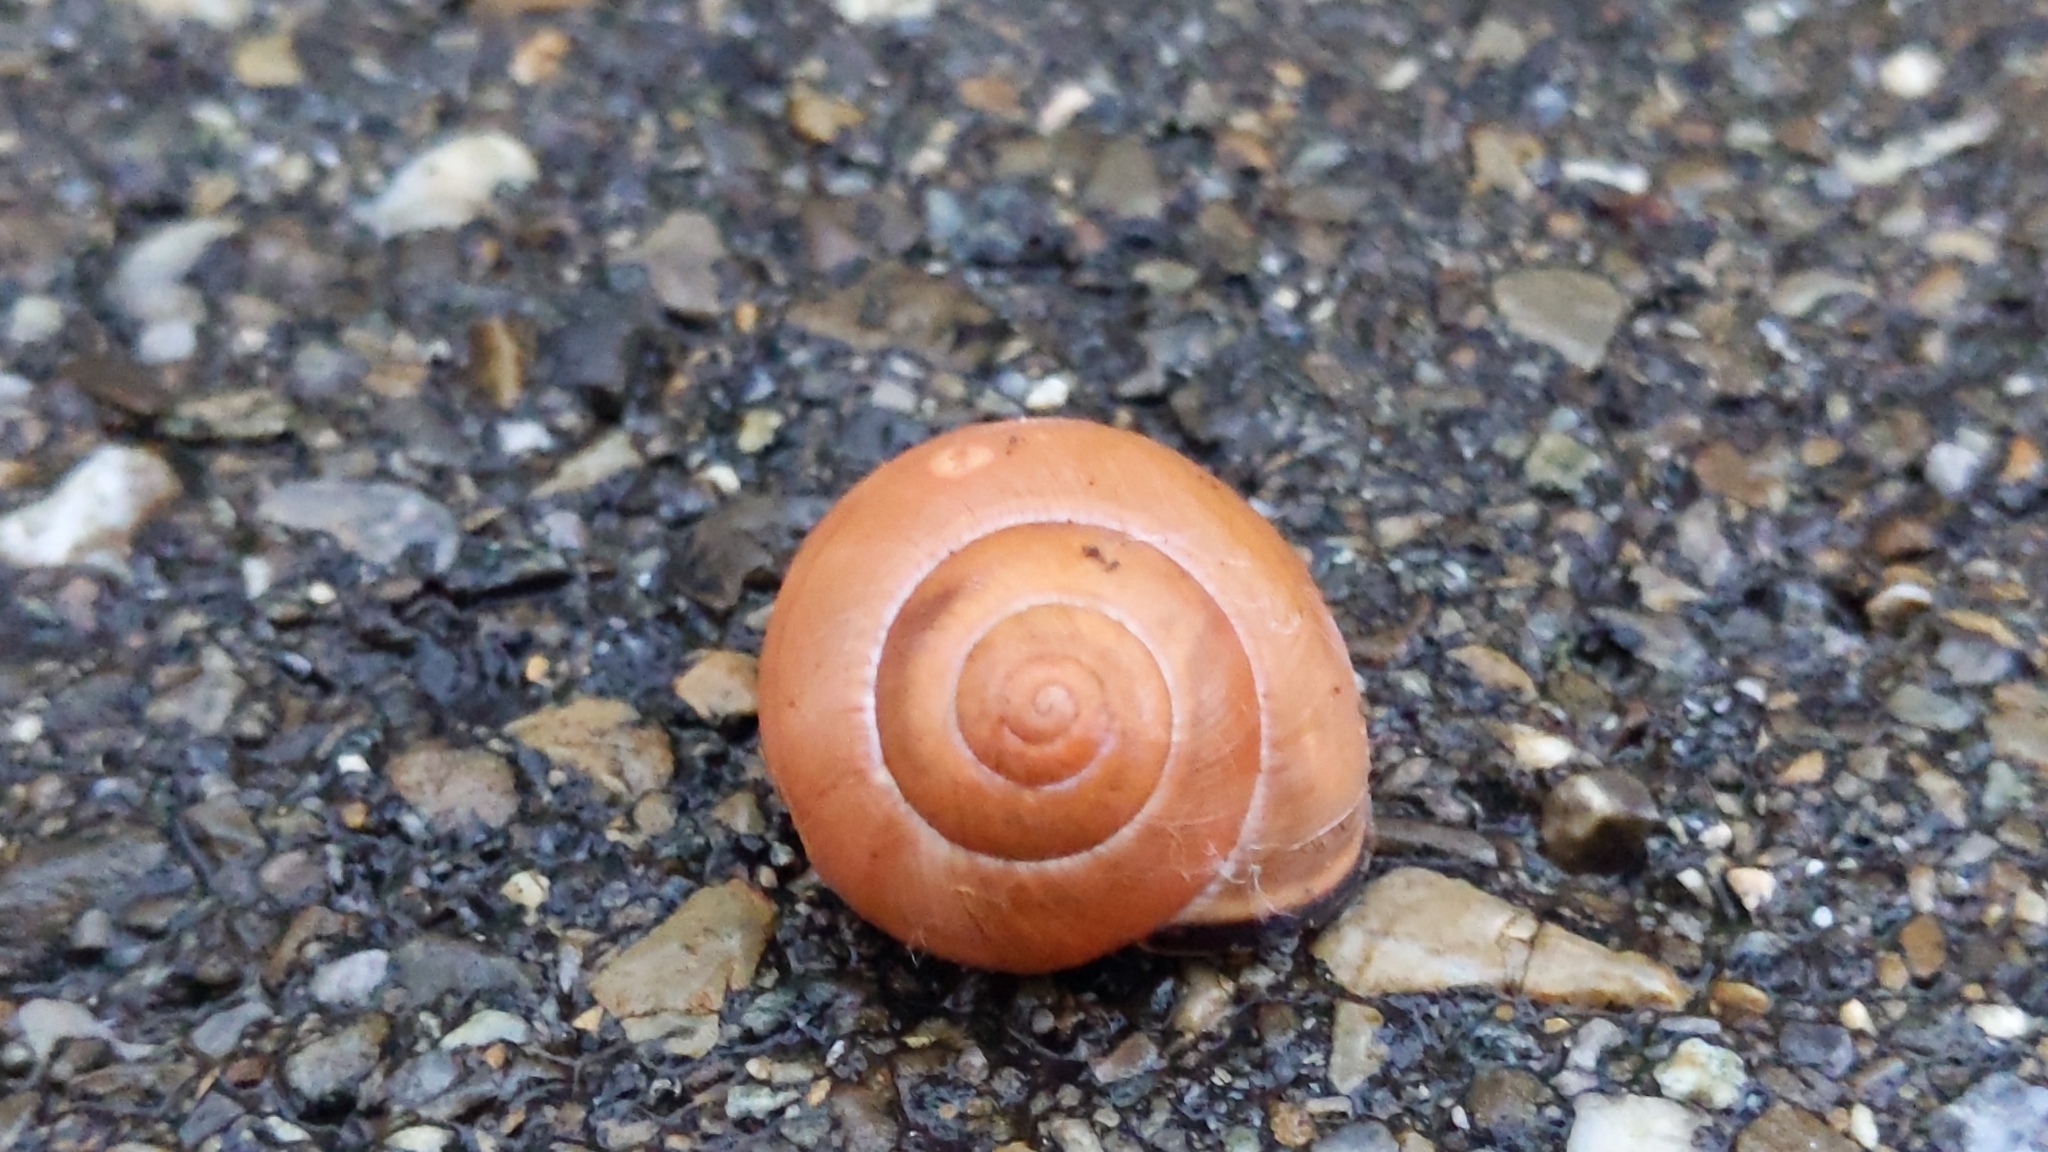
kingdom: Animalia
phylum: Mollusca
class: Gastropoda
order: Stylommatophora
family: Helicidae
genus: Cepaea
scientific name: Cepaea nemoralis
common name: Grovesnail
